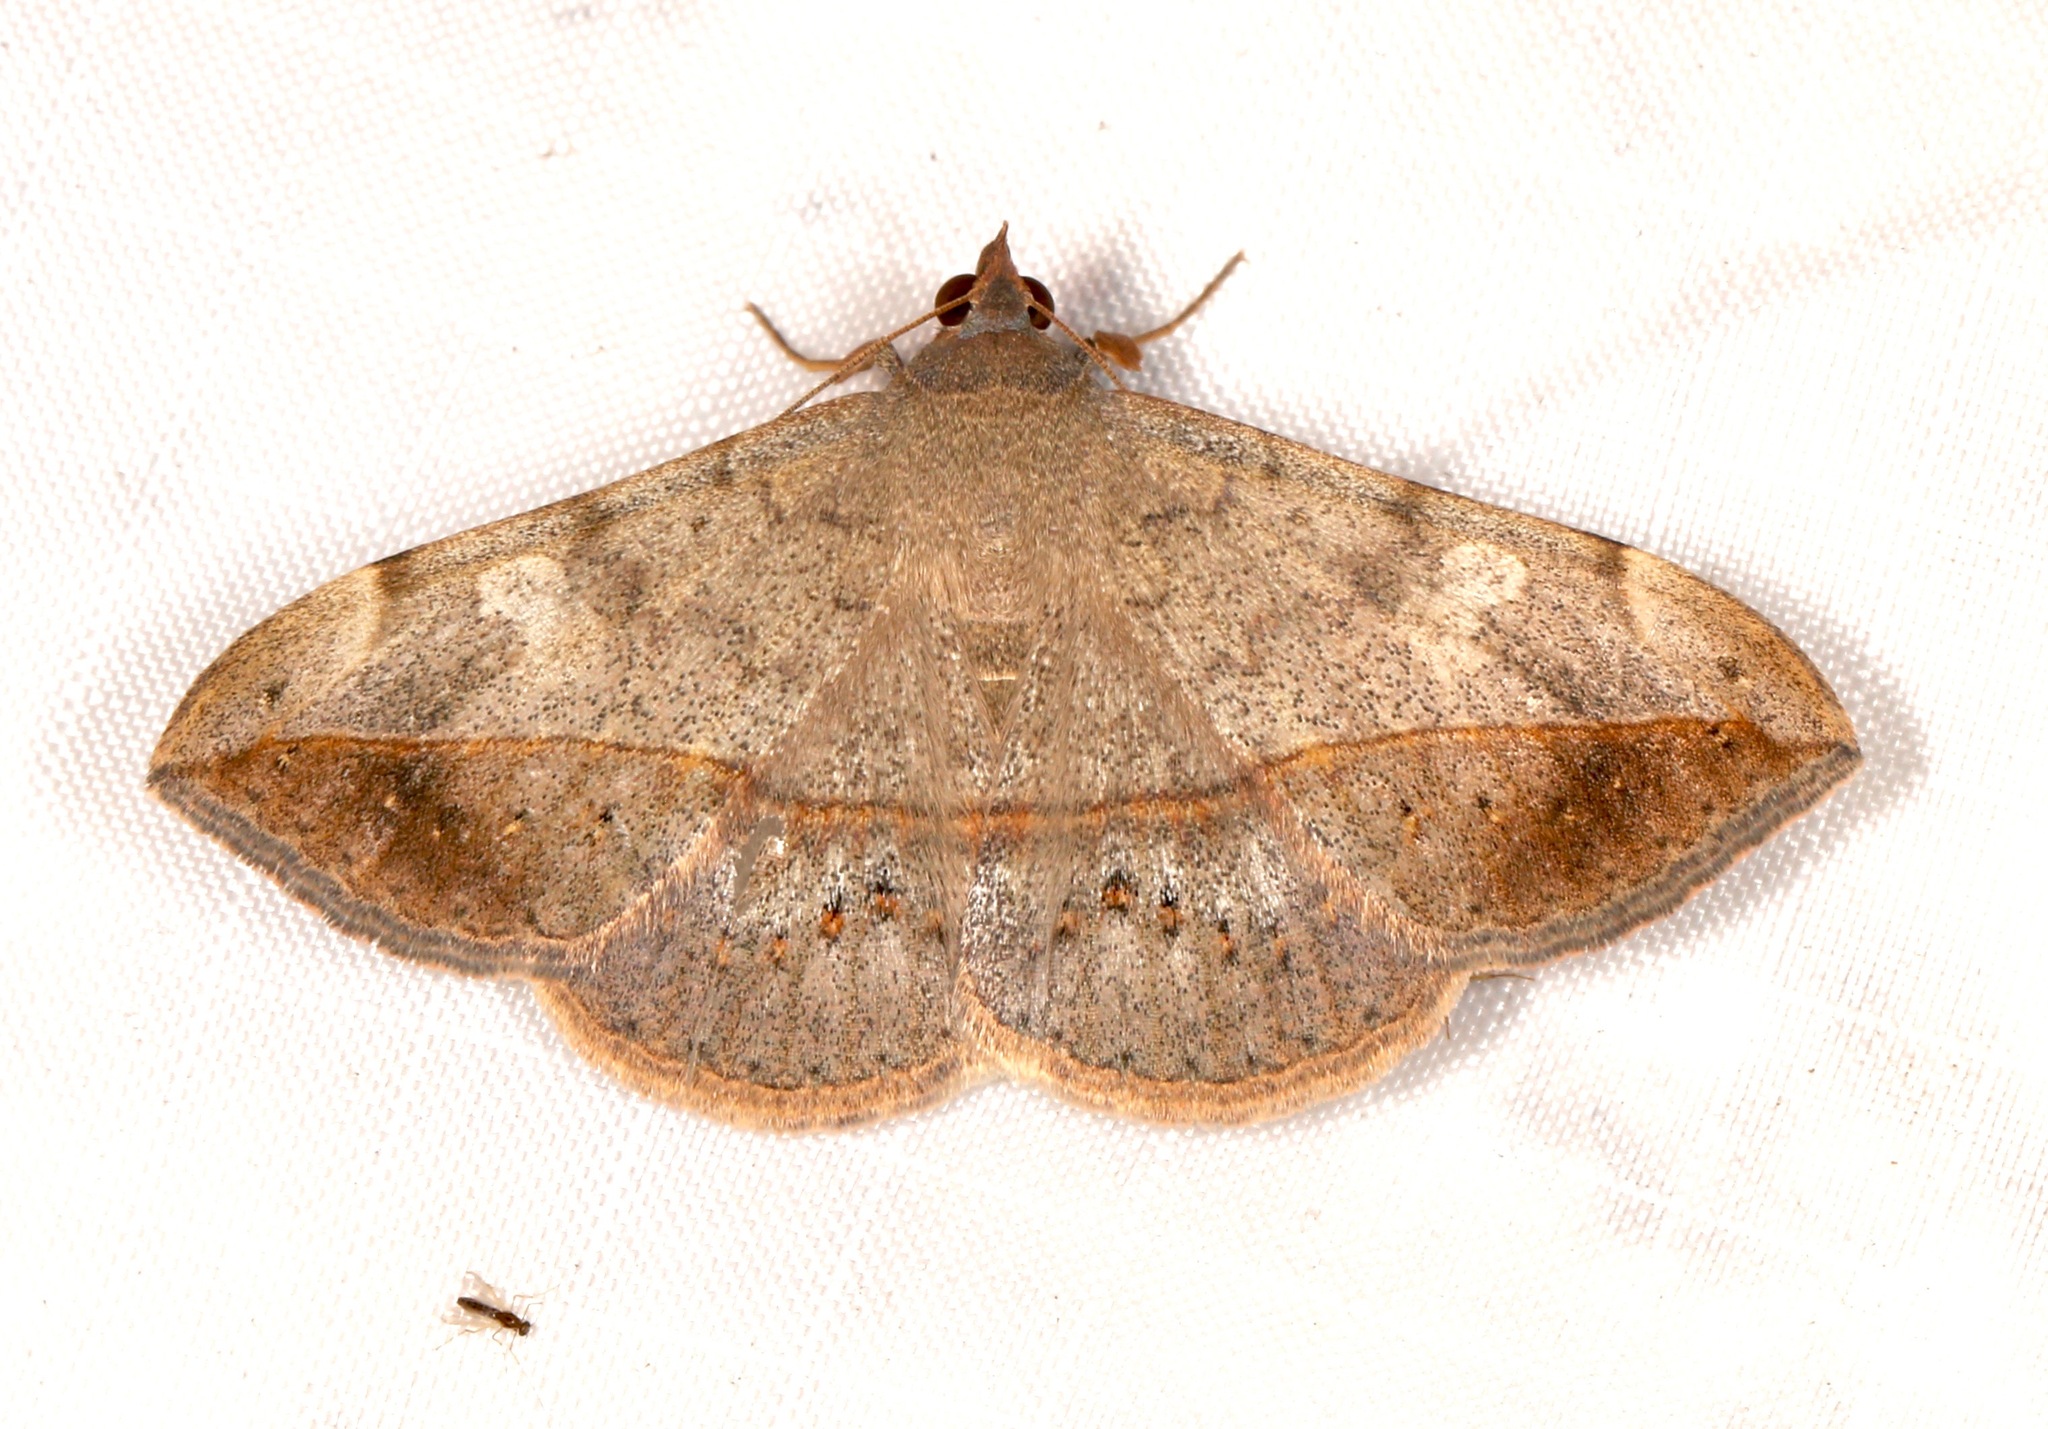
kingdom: Animalia
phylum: Arthropoda
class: Insecta
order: Lepidoptera
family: Erebidae
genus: Anticarsia
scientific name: Anticarsia gemmatalis
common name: Cutworm moth
